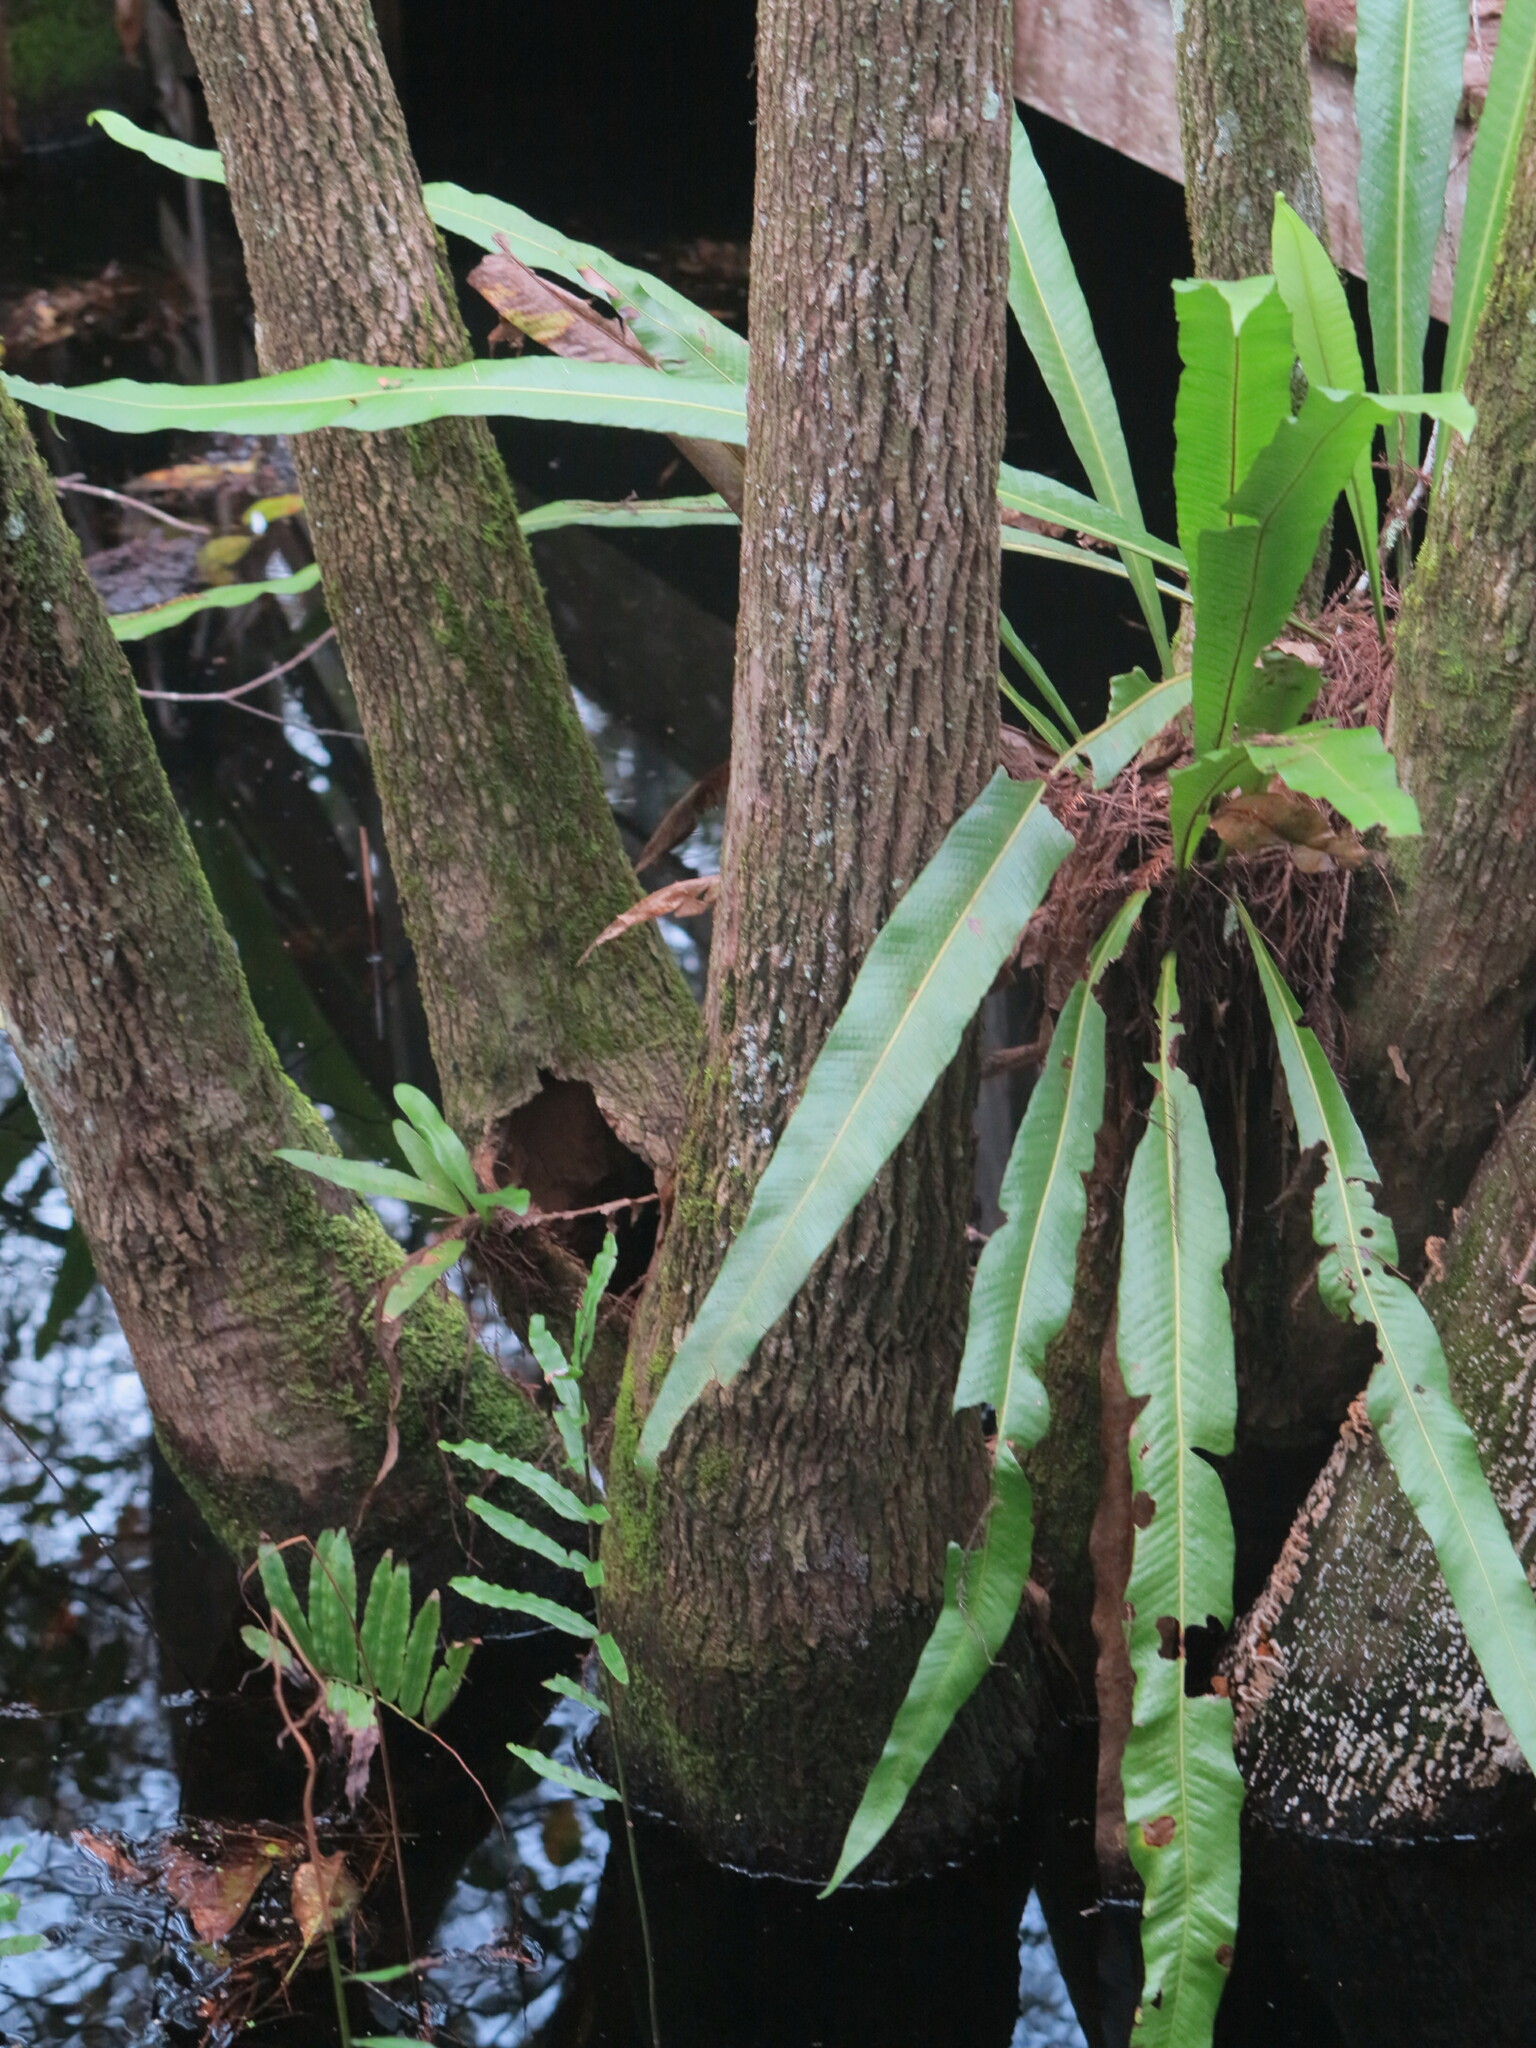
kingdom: Plantae
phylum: Tracheophyta
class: Polypodiopsida
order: Polypodiales
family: Polypodiaceae
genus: Campyloneurum
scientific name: Campyloneurum phyllitidis
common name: Cow-tongue fern
